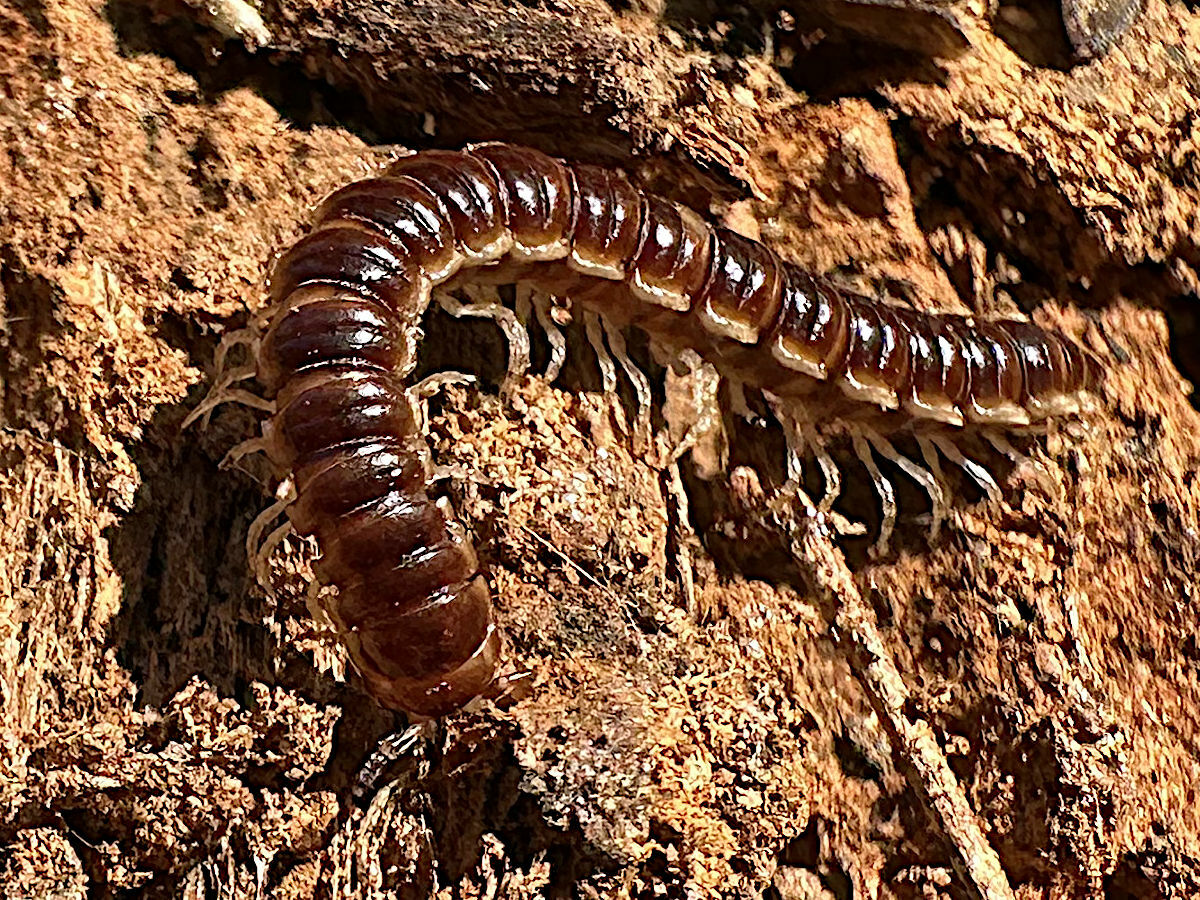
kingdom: Animalia
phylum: Arthropoda
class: Diplopoda
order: Polydesmida
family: Paradoxosomatidae
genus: Oxidus
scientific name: Oxidus gracilis
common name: Greenhouse millipede
